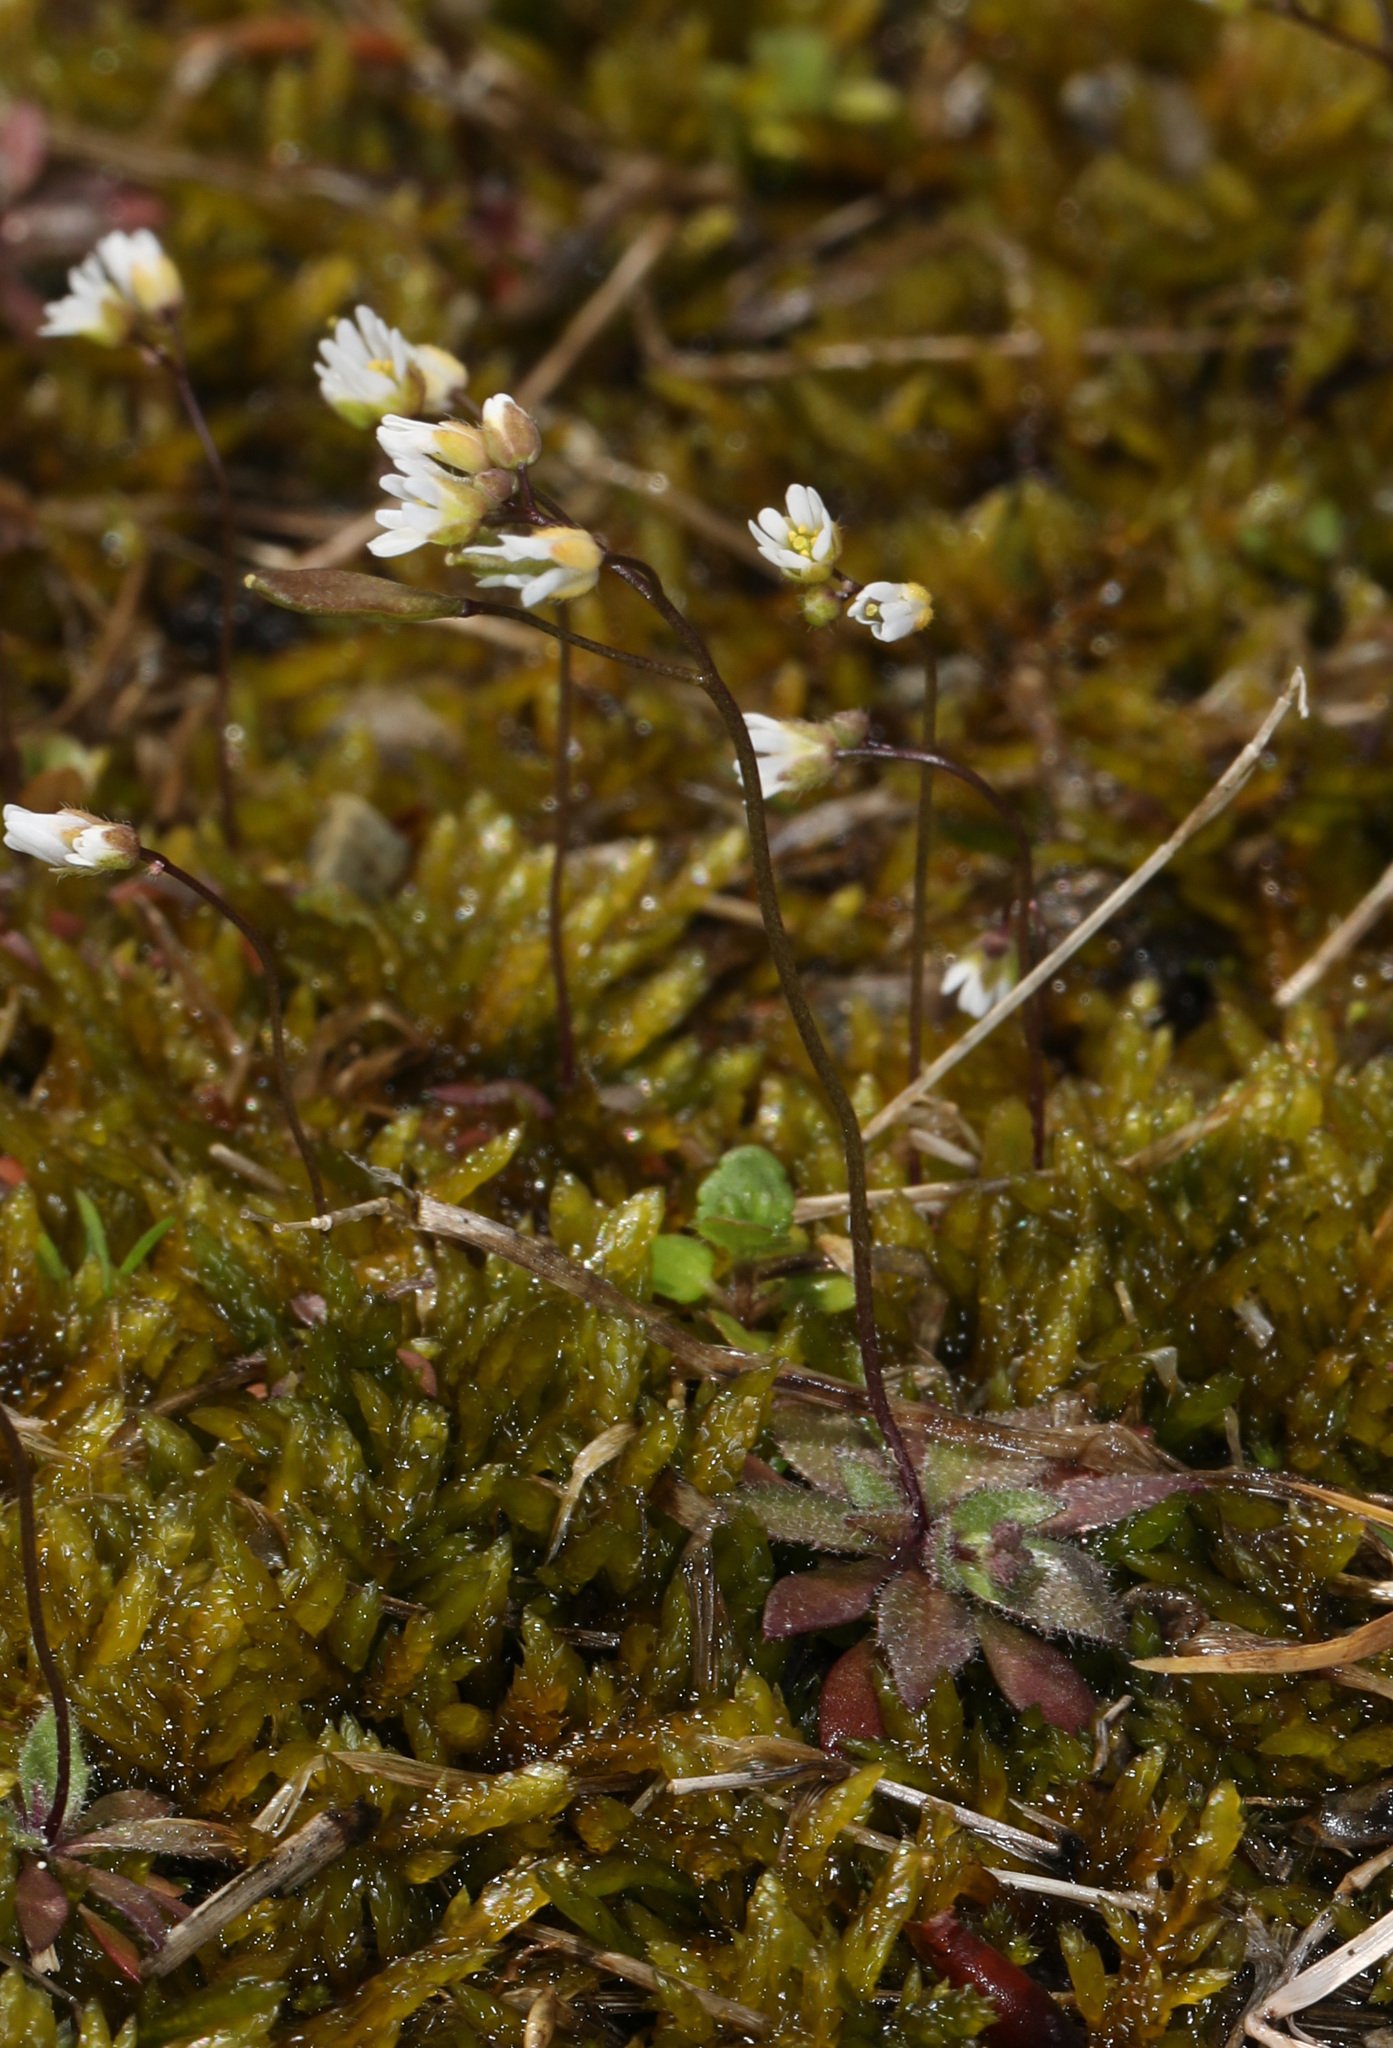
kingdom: Plantae
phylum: Tracheophyta
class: Magnoliopsida
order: Brassicales
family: Brassicaceae
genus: Draba
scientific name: Draba verna
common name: Spring draba
